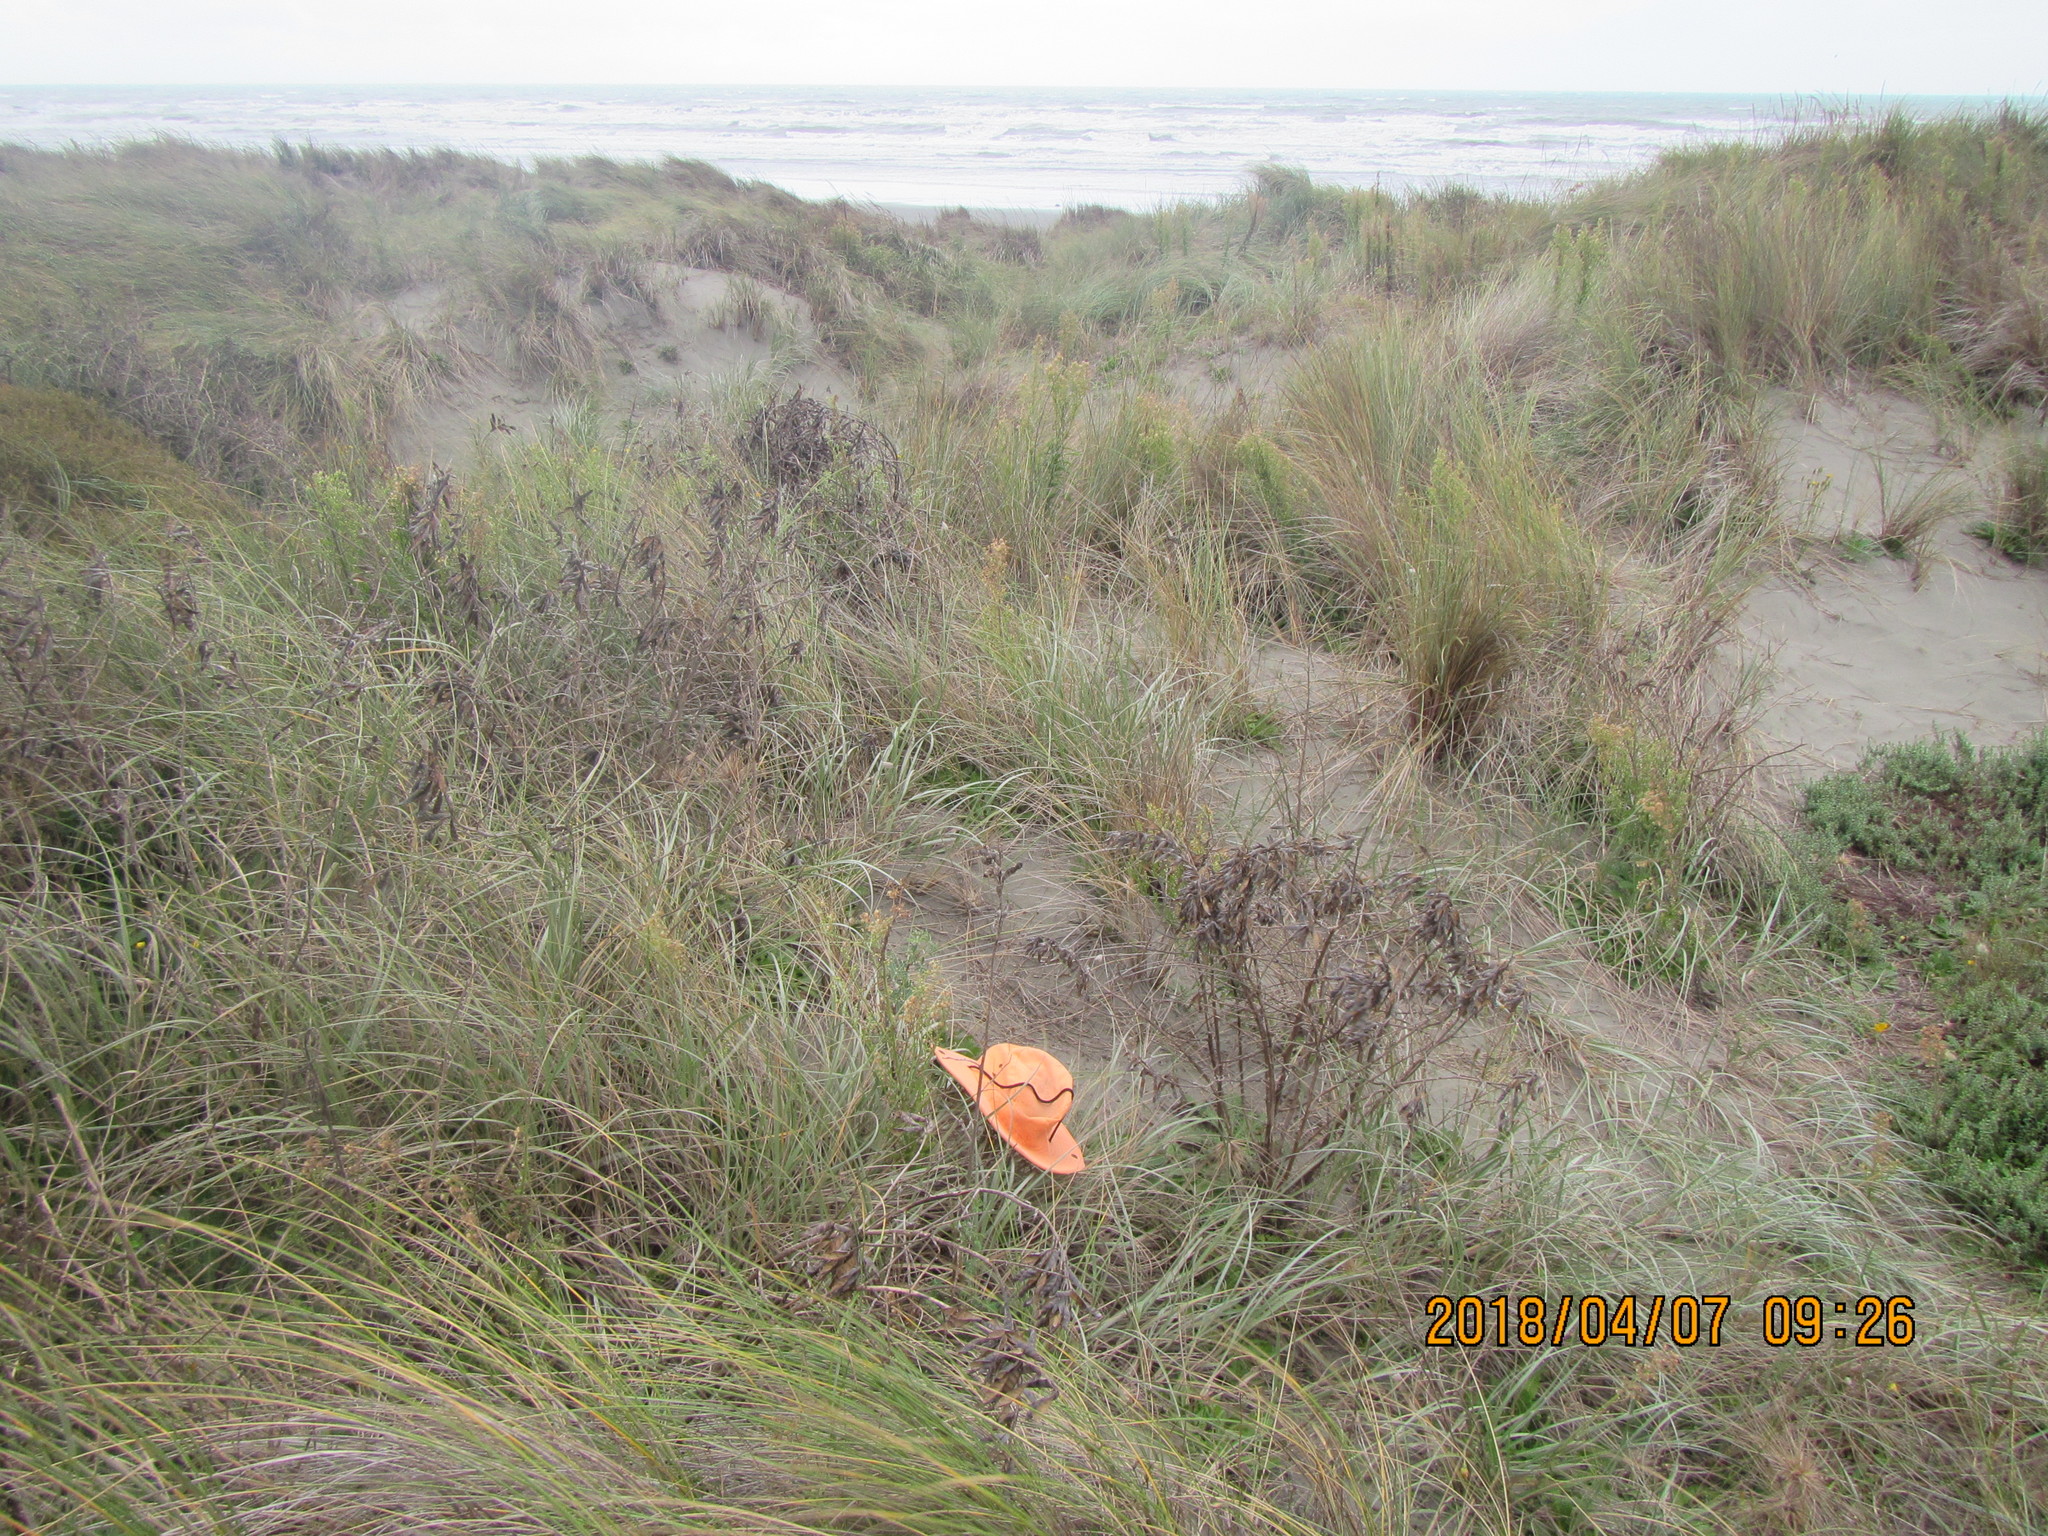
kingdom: Animalia
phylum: Arthropoda
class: Arachnida
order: Araneae
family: Theridiidae
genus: Steatoda
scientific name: Steatoda capensis
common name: Cobweb weaver
